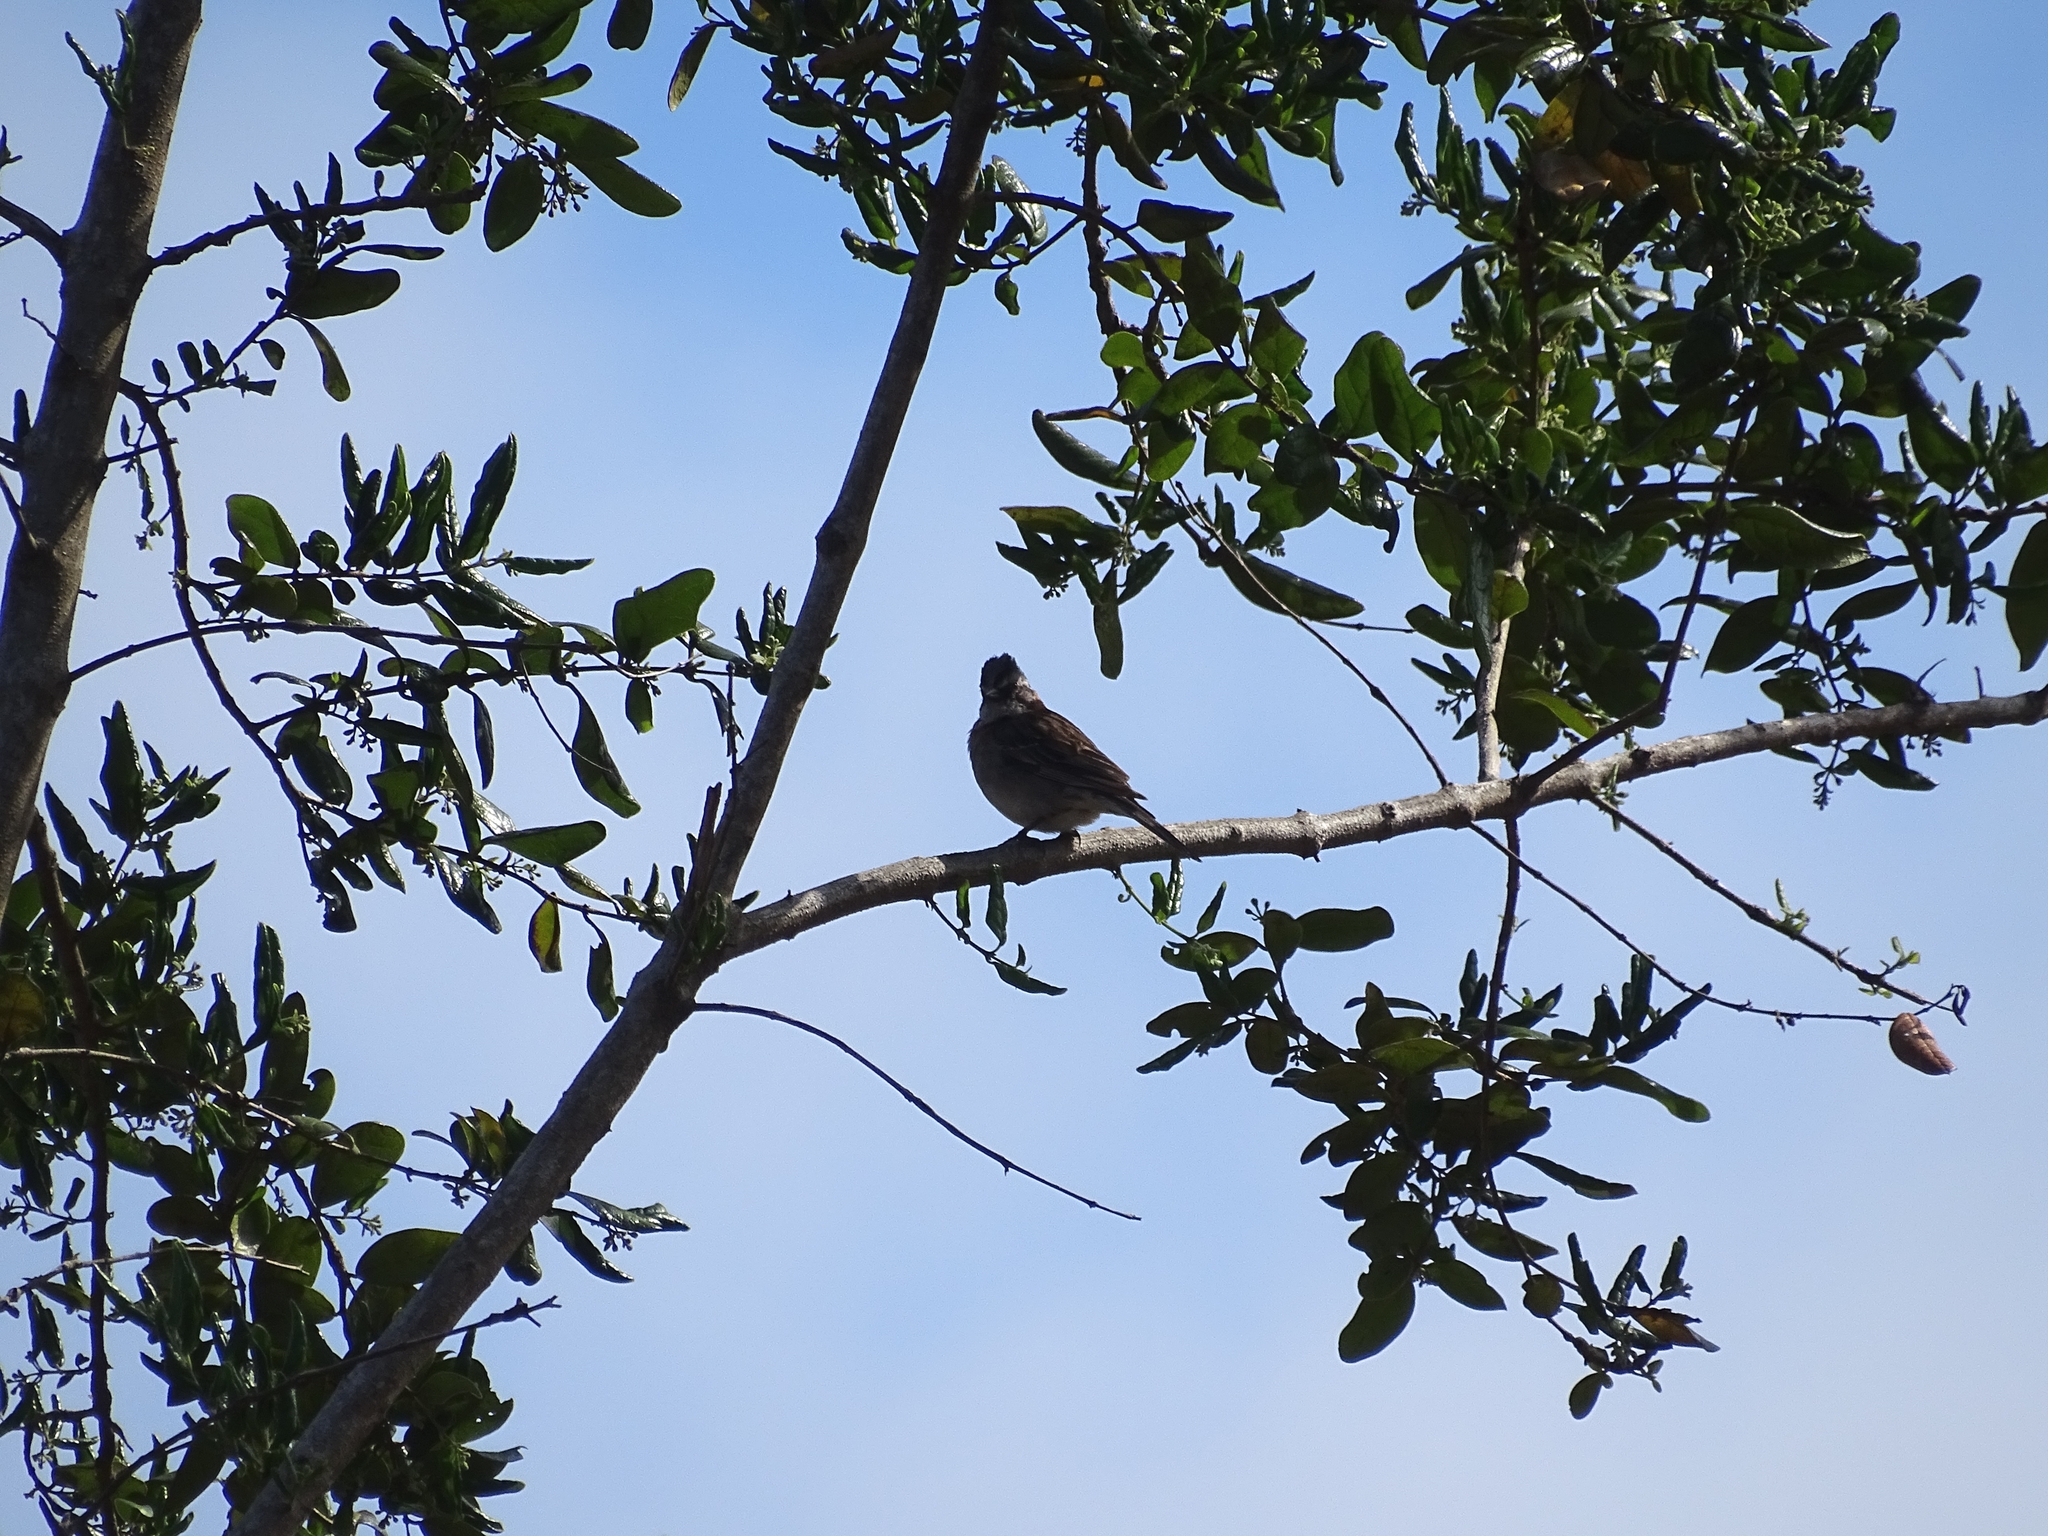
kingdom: Animalia
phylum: Chordata
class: Aves
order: Passeriformes
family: Passerellidae
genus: Zonotrichia
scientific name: Zonotrichia capensis
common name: Rufous-collared sparrow
